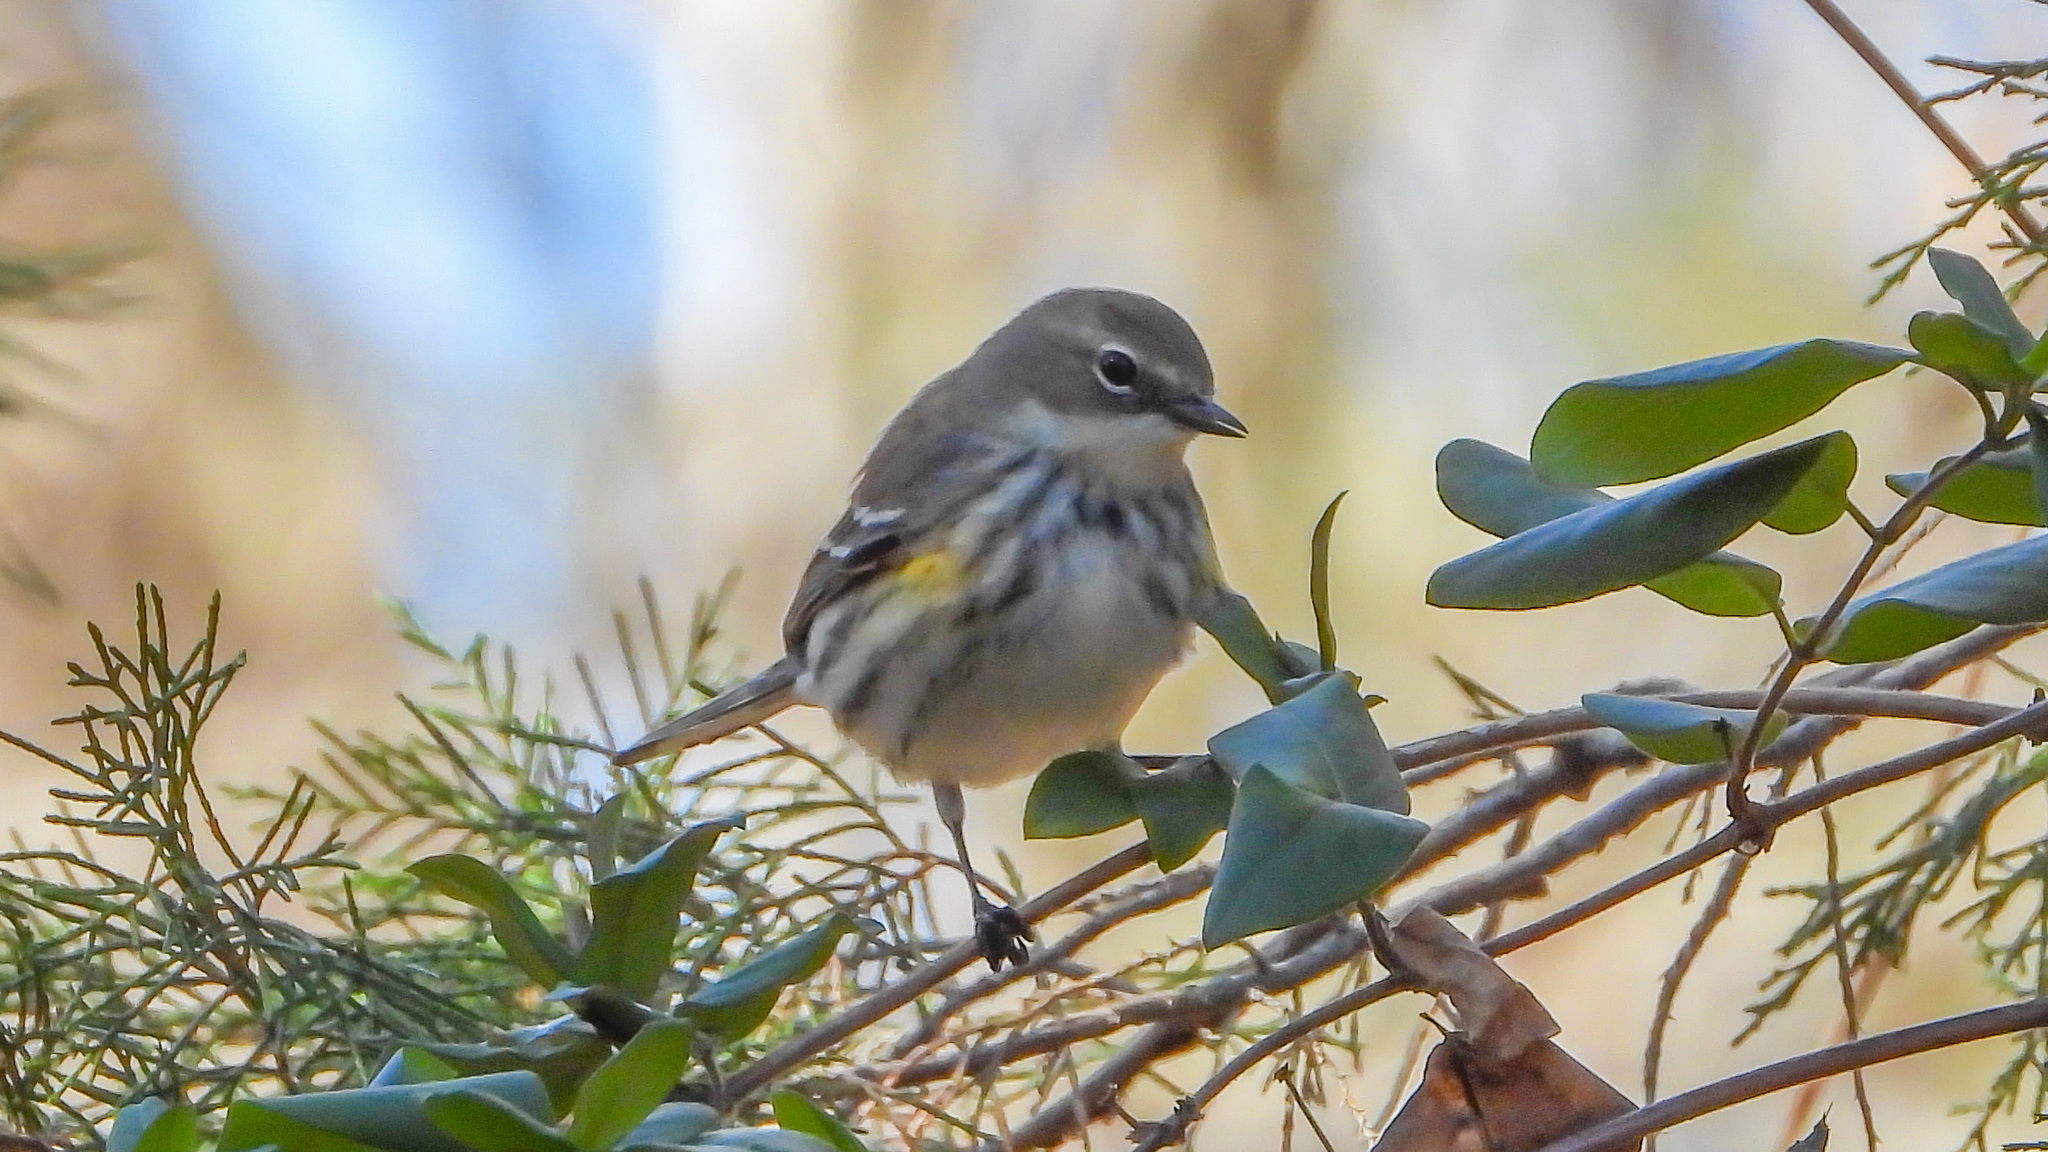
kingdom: Animalia
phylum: Chordata
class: Aves
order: Passeriformes
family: Parulidae
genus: Setophaga
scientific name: Setophaga coronata
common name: Myrtle warbler
